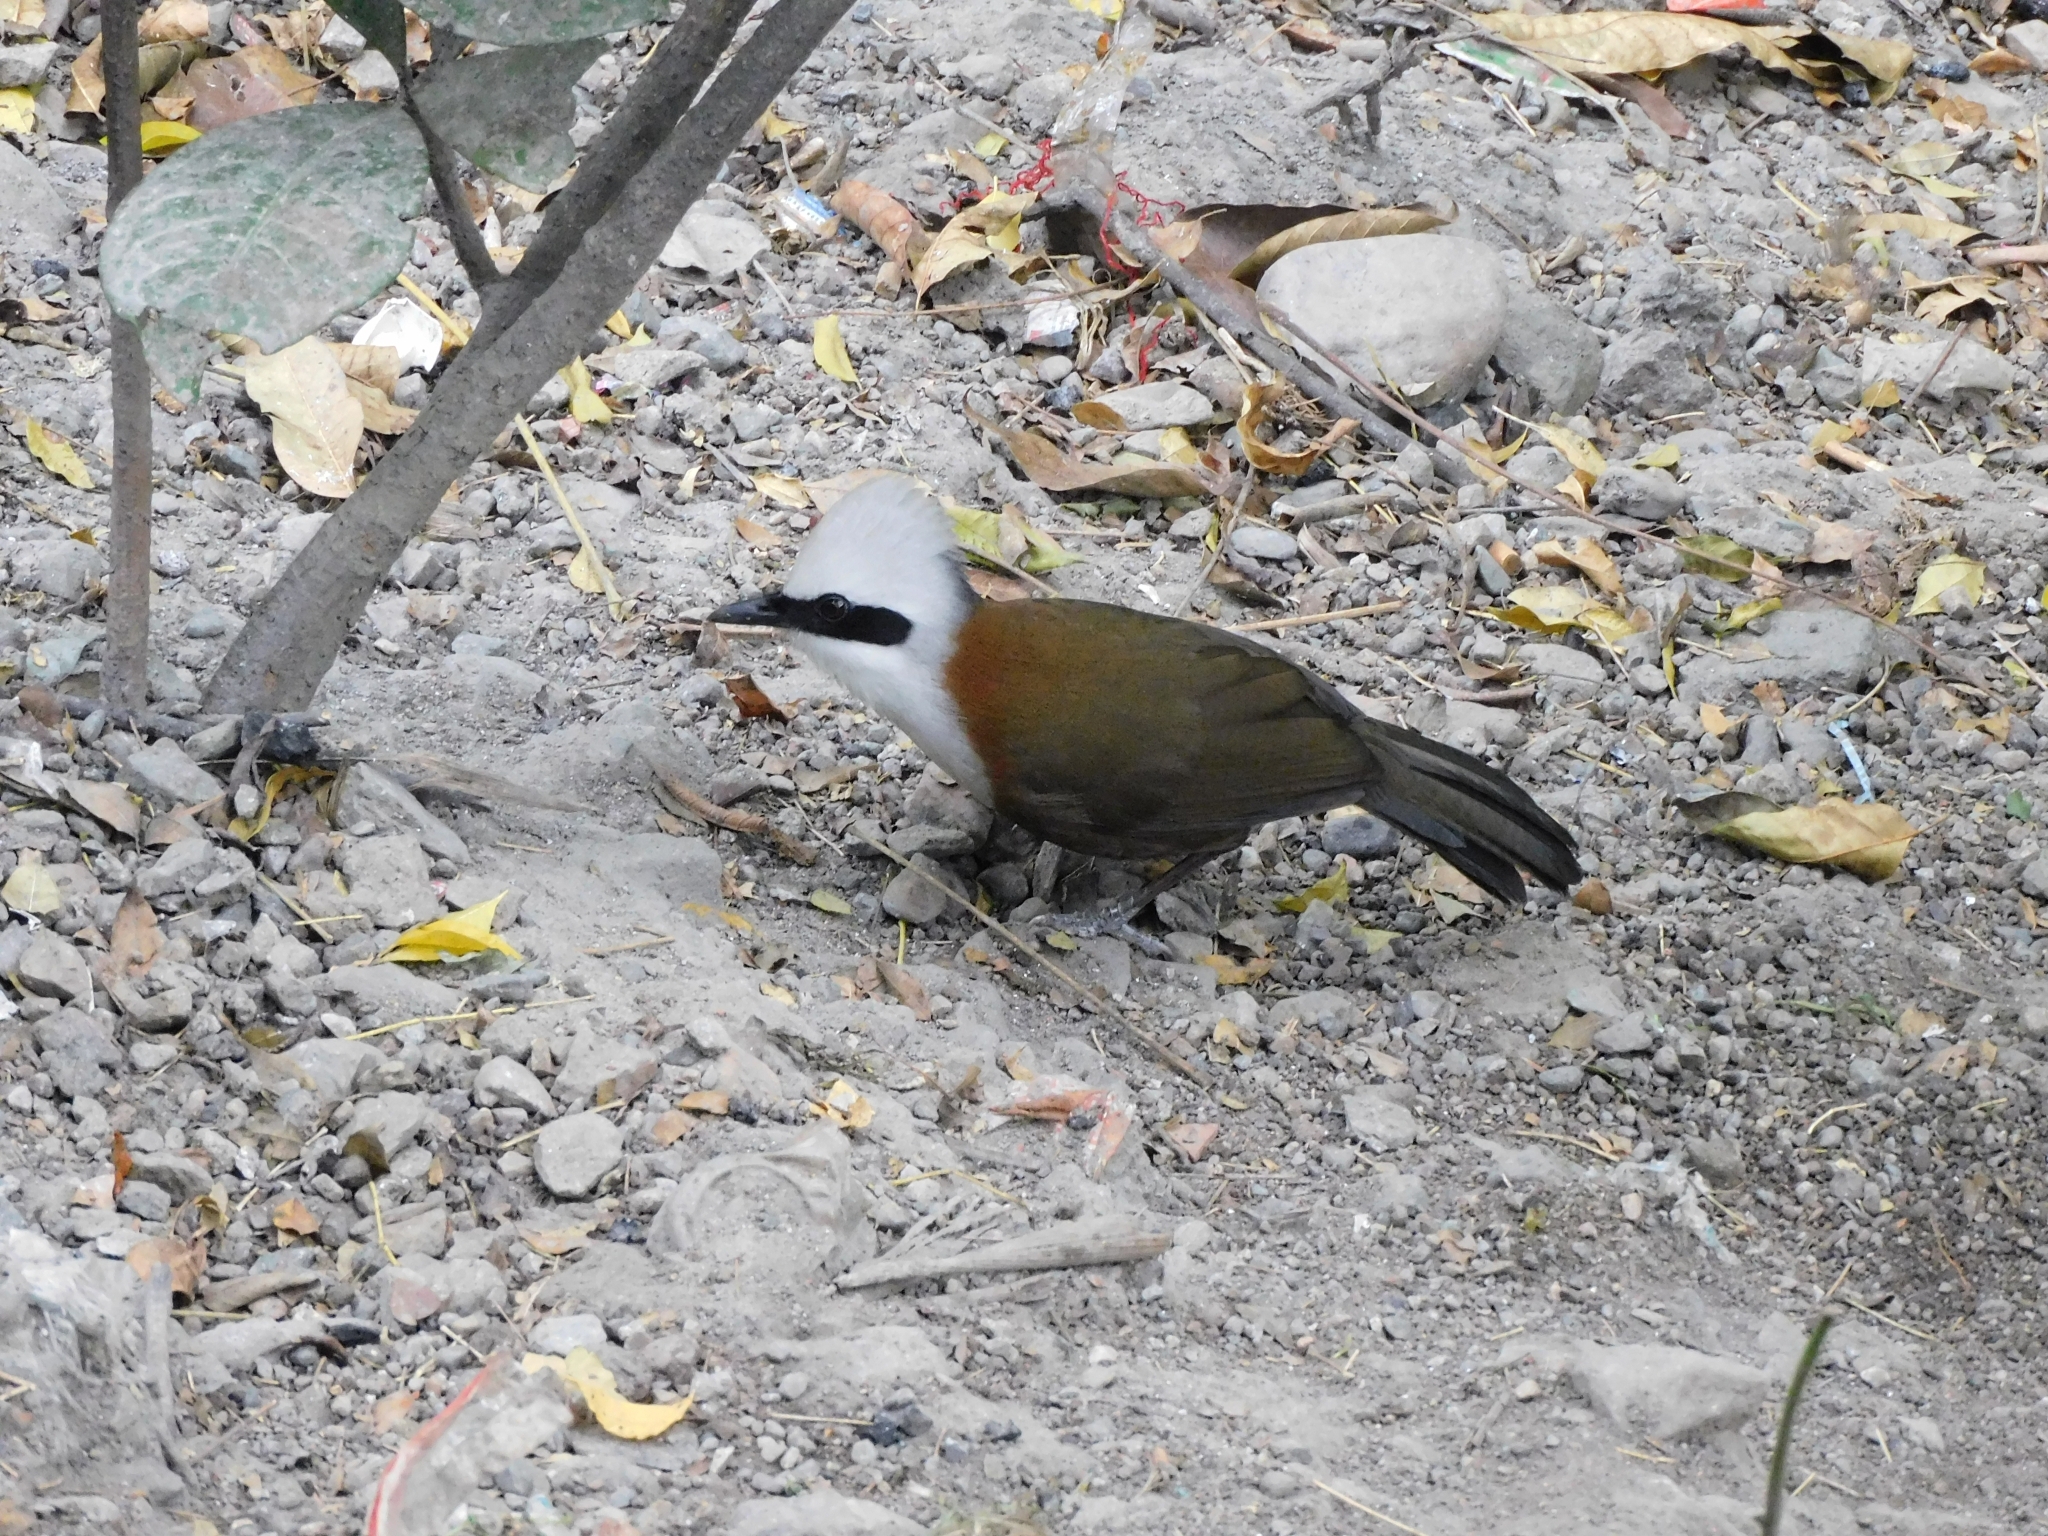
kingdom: Animalia
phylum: Chordata
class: Aves
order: Passeriformes
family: Leiothrichidae
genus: Garrulax
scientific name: Garrulax leucolophus
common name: White-crested laughingthrush
